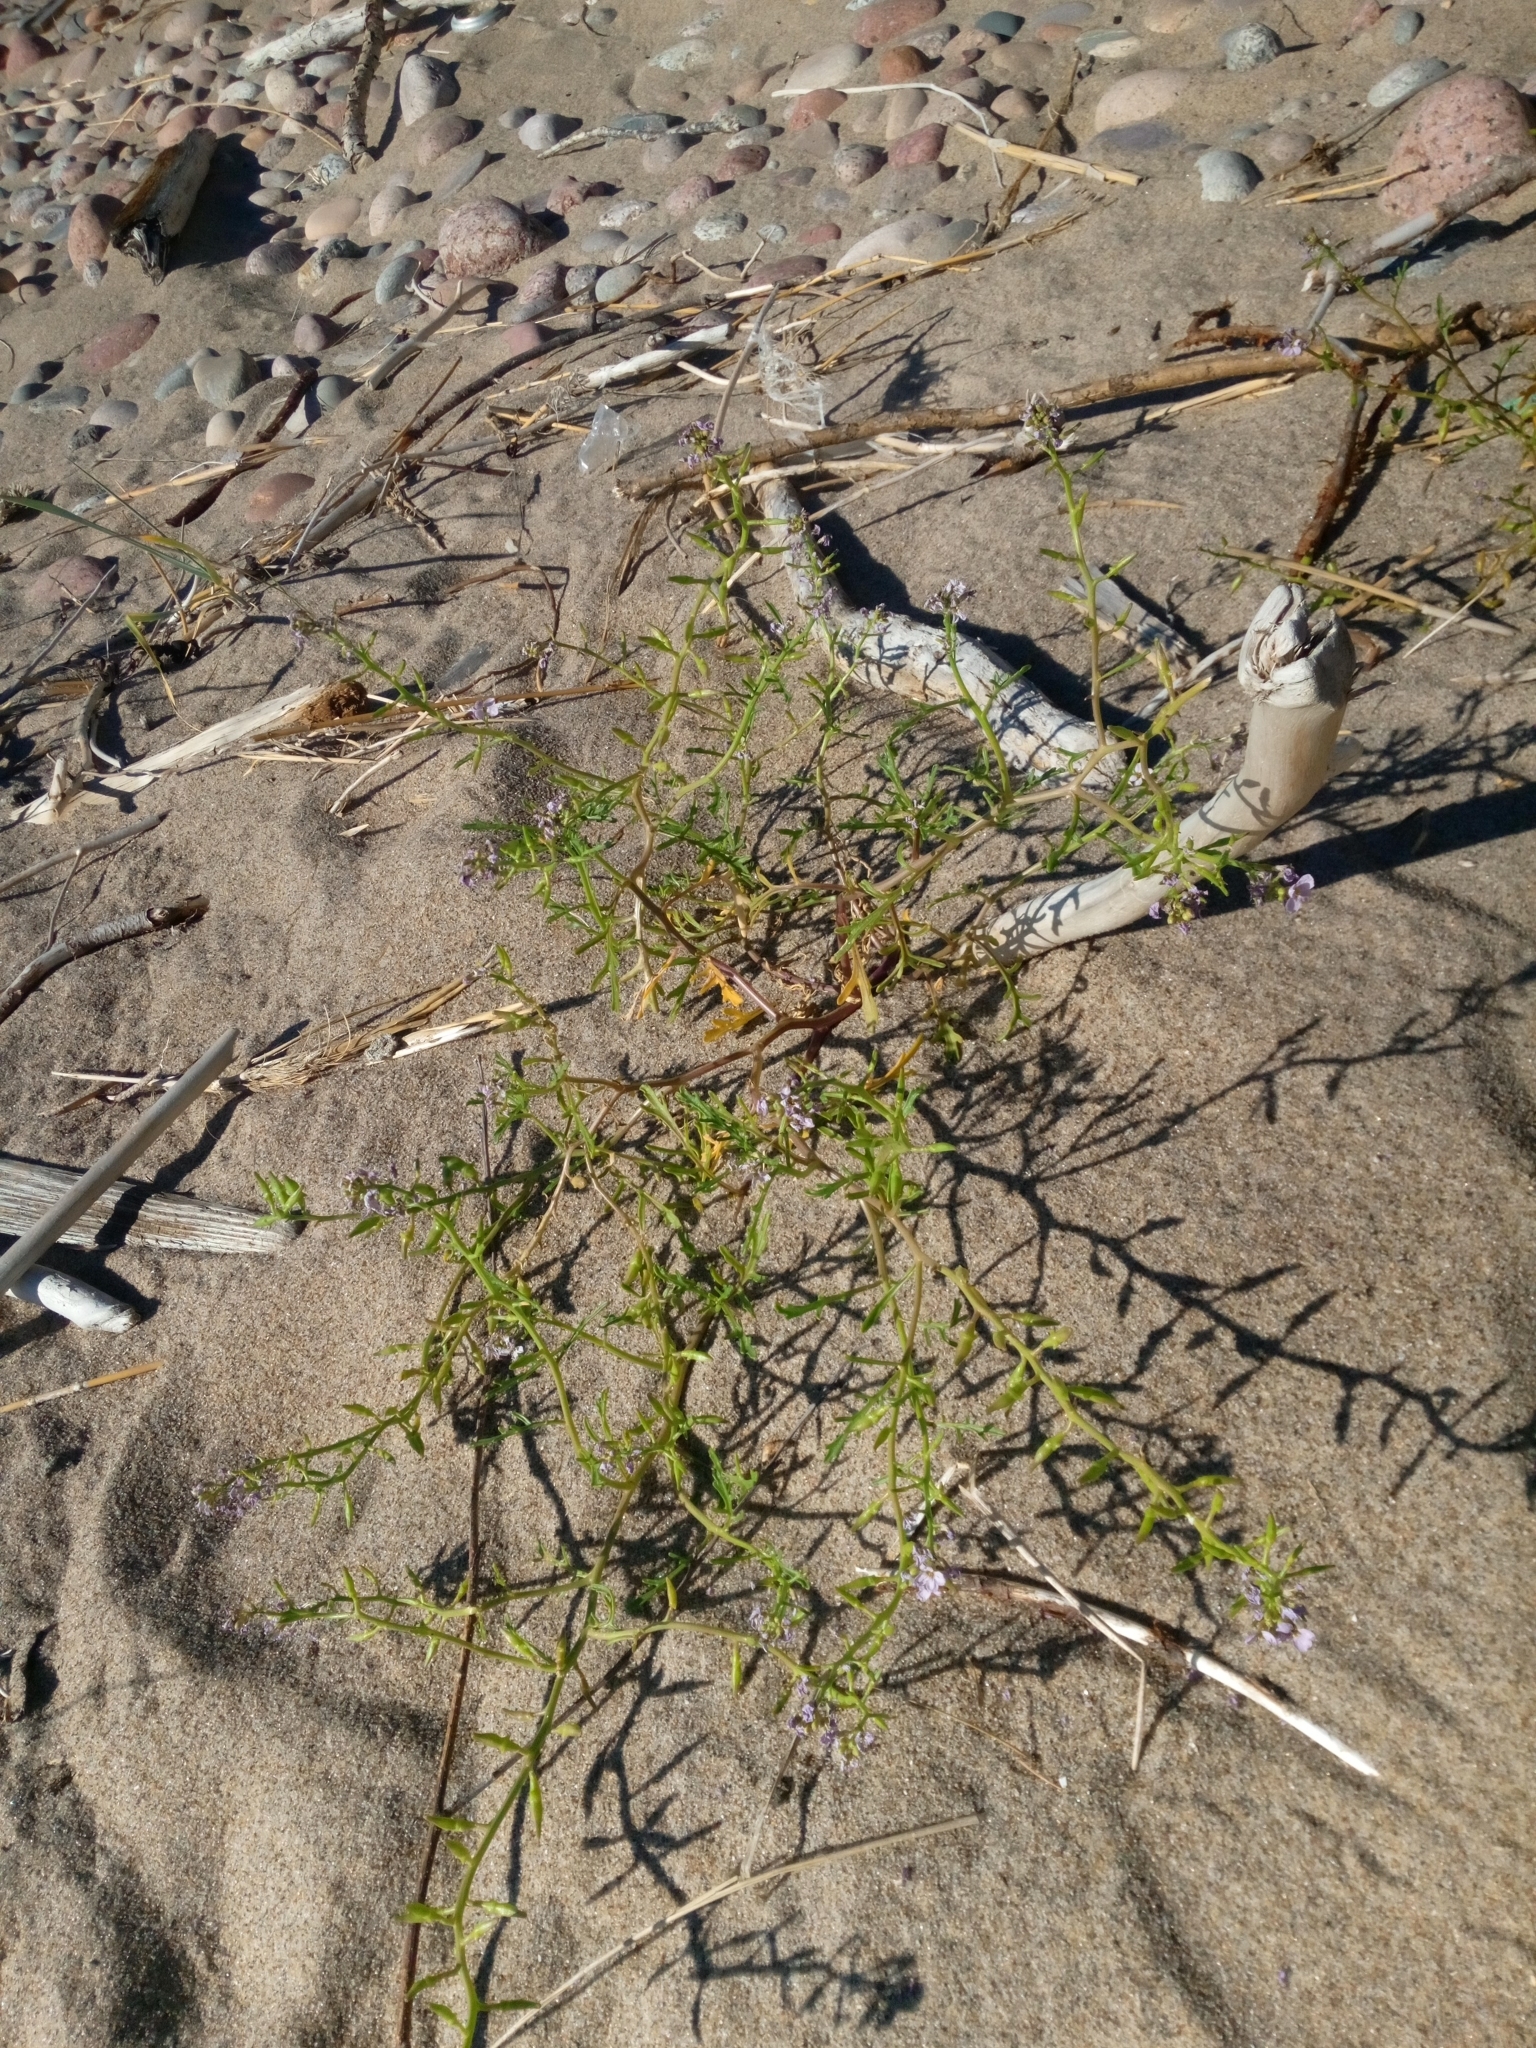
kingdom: Plantae
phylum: Tracheophyta
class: Magnoliopsida
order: Brassicales
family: Brassicaceae
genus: Cakile
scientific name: Cakile maritima
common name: Sea rocket
